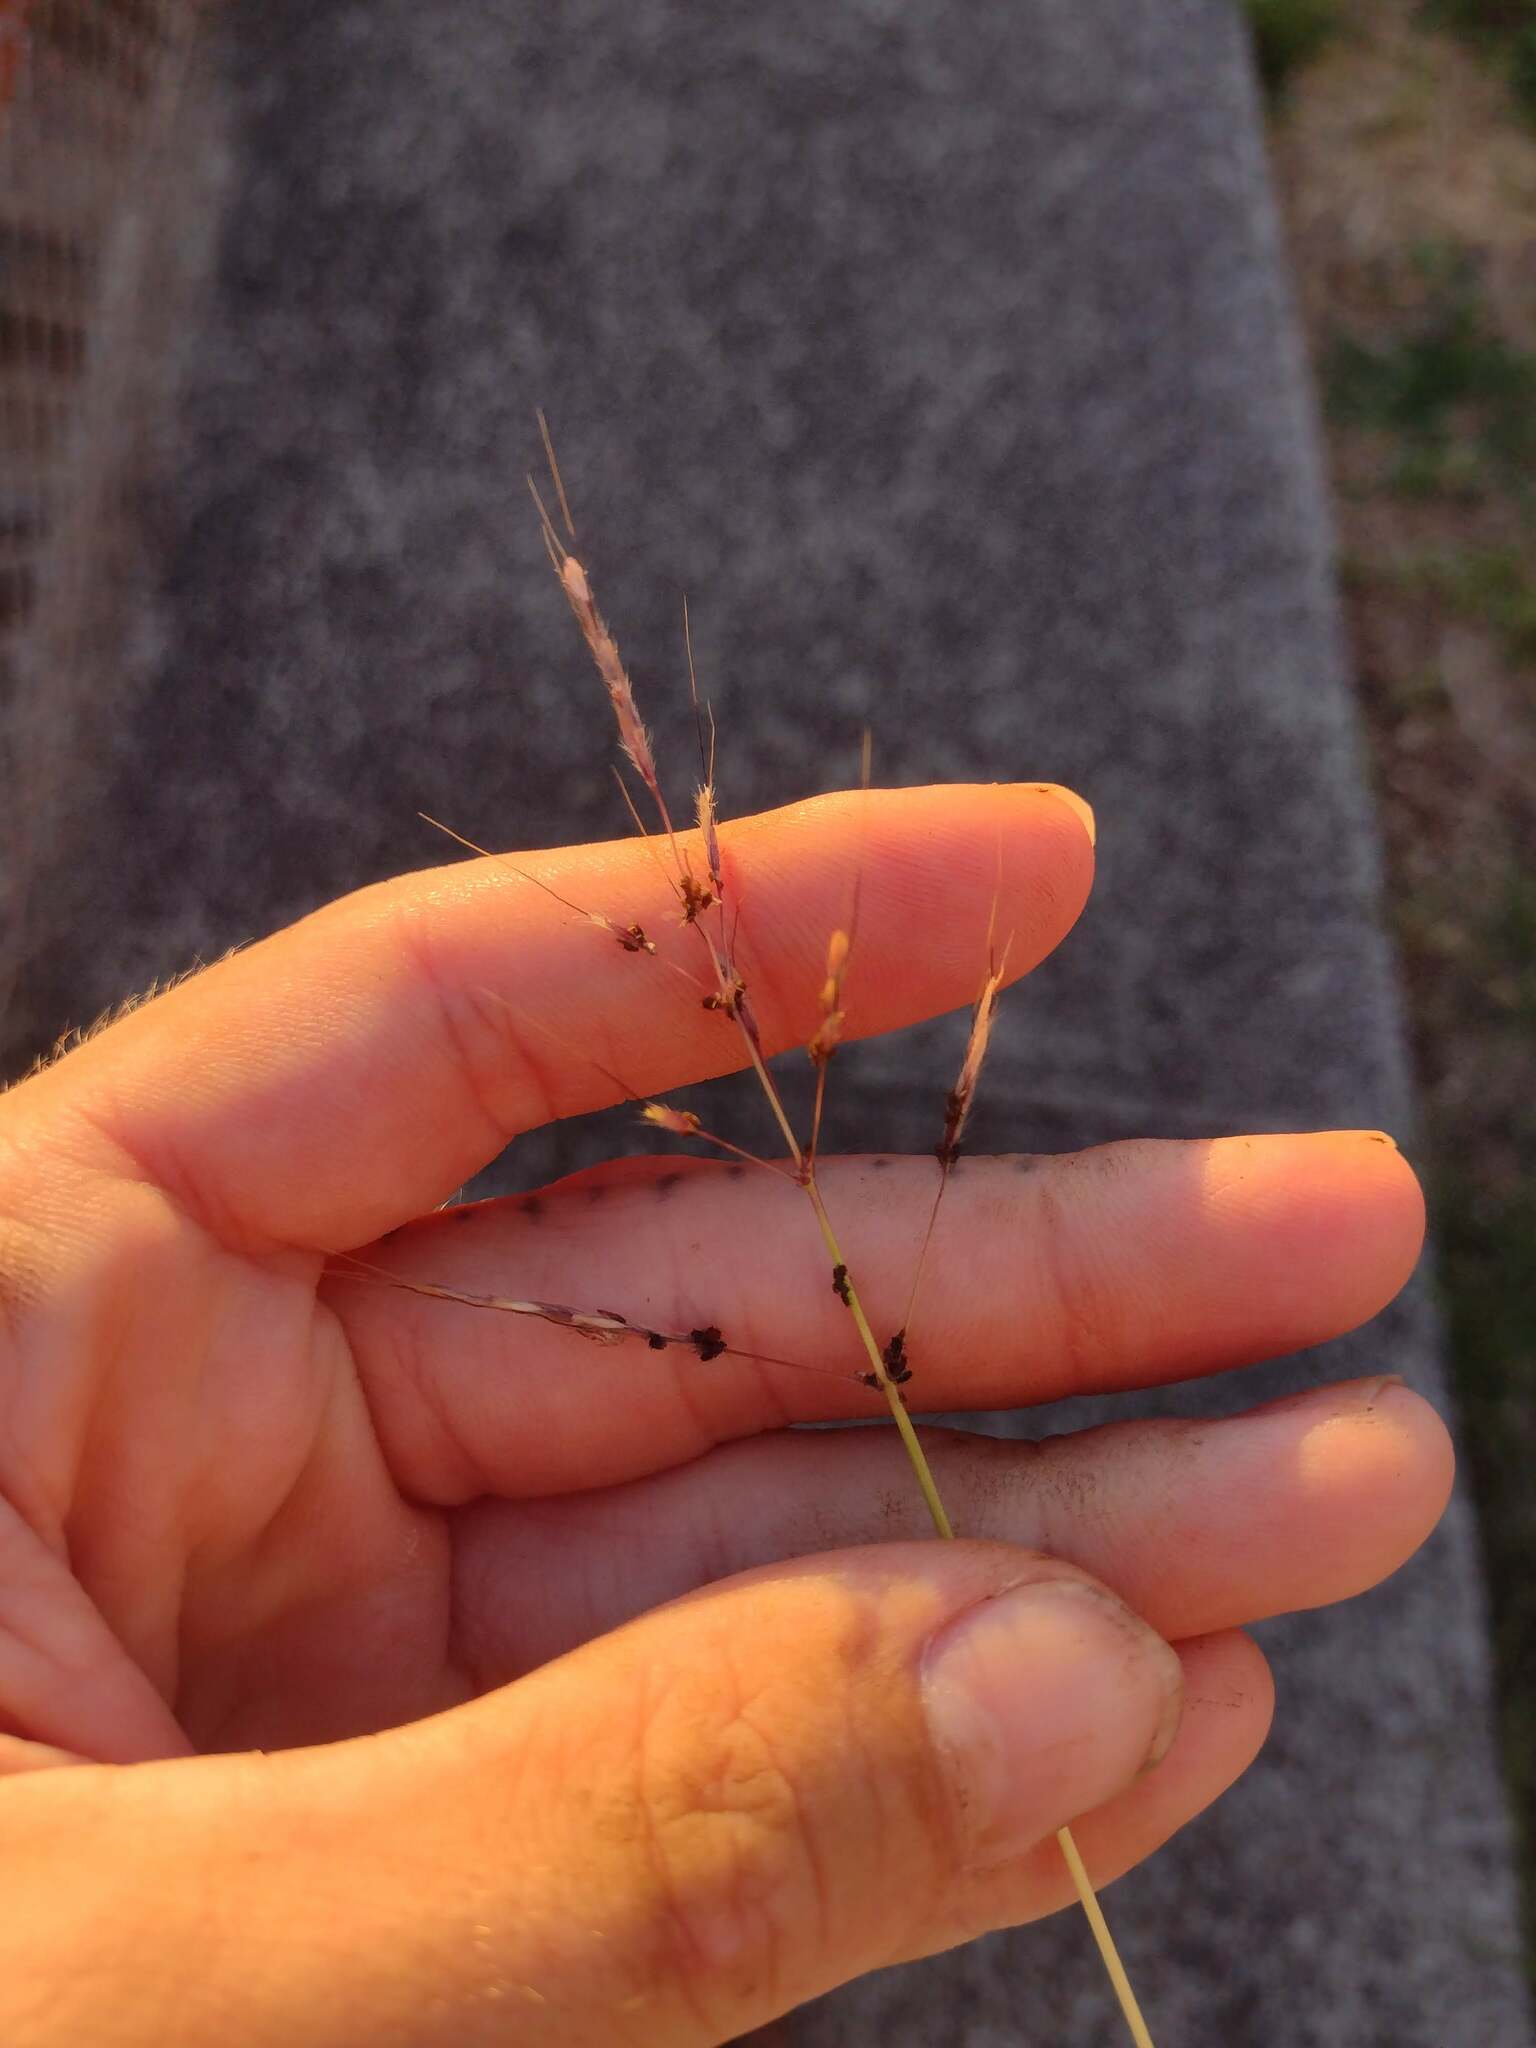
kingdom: Plantae
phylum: Tracheophyta
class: Liliopsida
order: Poales
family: Poaceae
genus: Dichanthium
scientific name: Dichanthium annulatum
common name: Kleberg's bluestem
